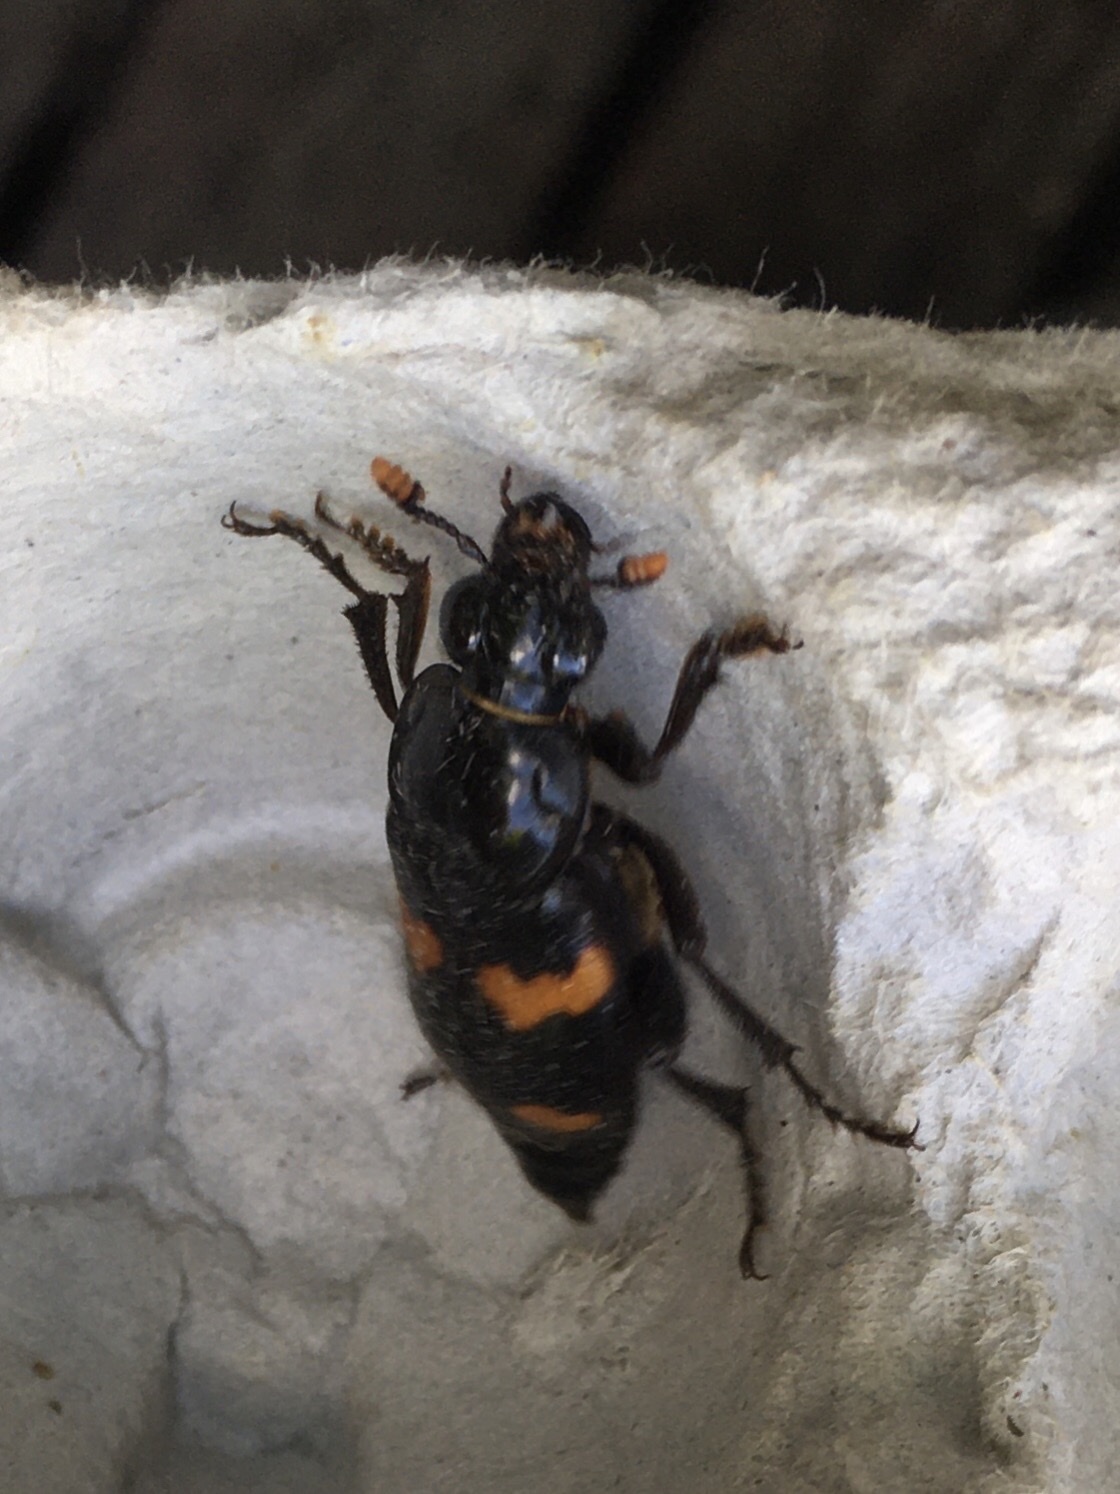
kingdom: Animalia
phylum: Arthropoda
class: Insecta
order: Coleoptera
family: Staphylinidae
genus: Nicrophorus
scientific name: Nicrophorus orbicollis
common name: Roundneck sexton beetle
